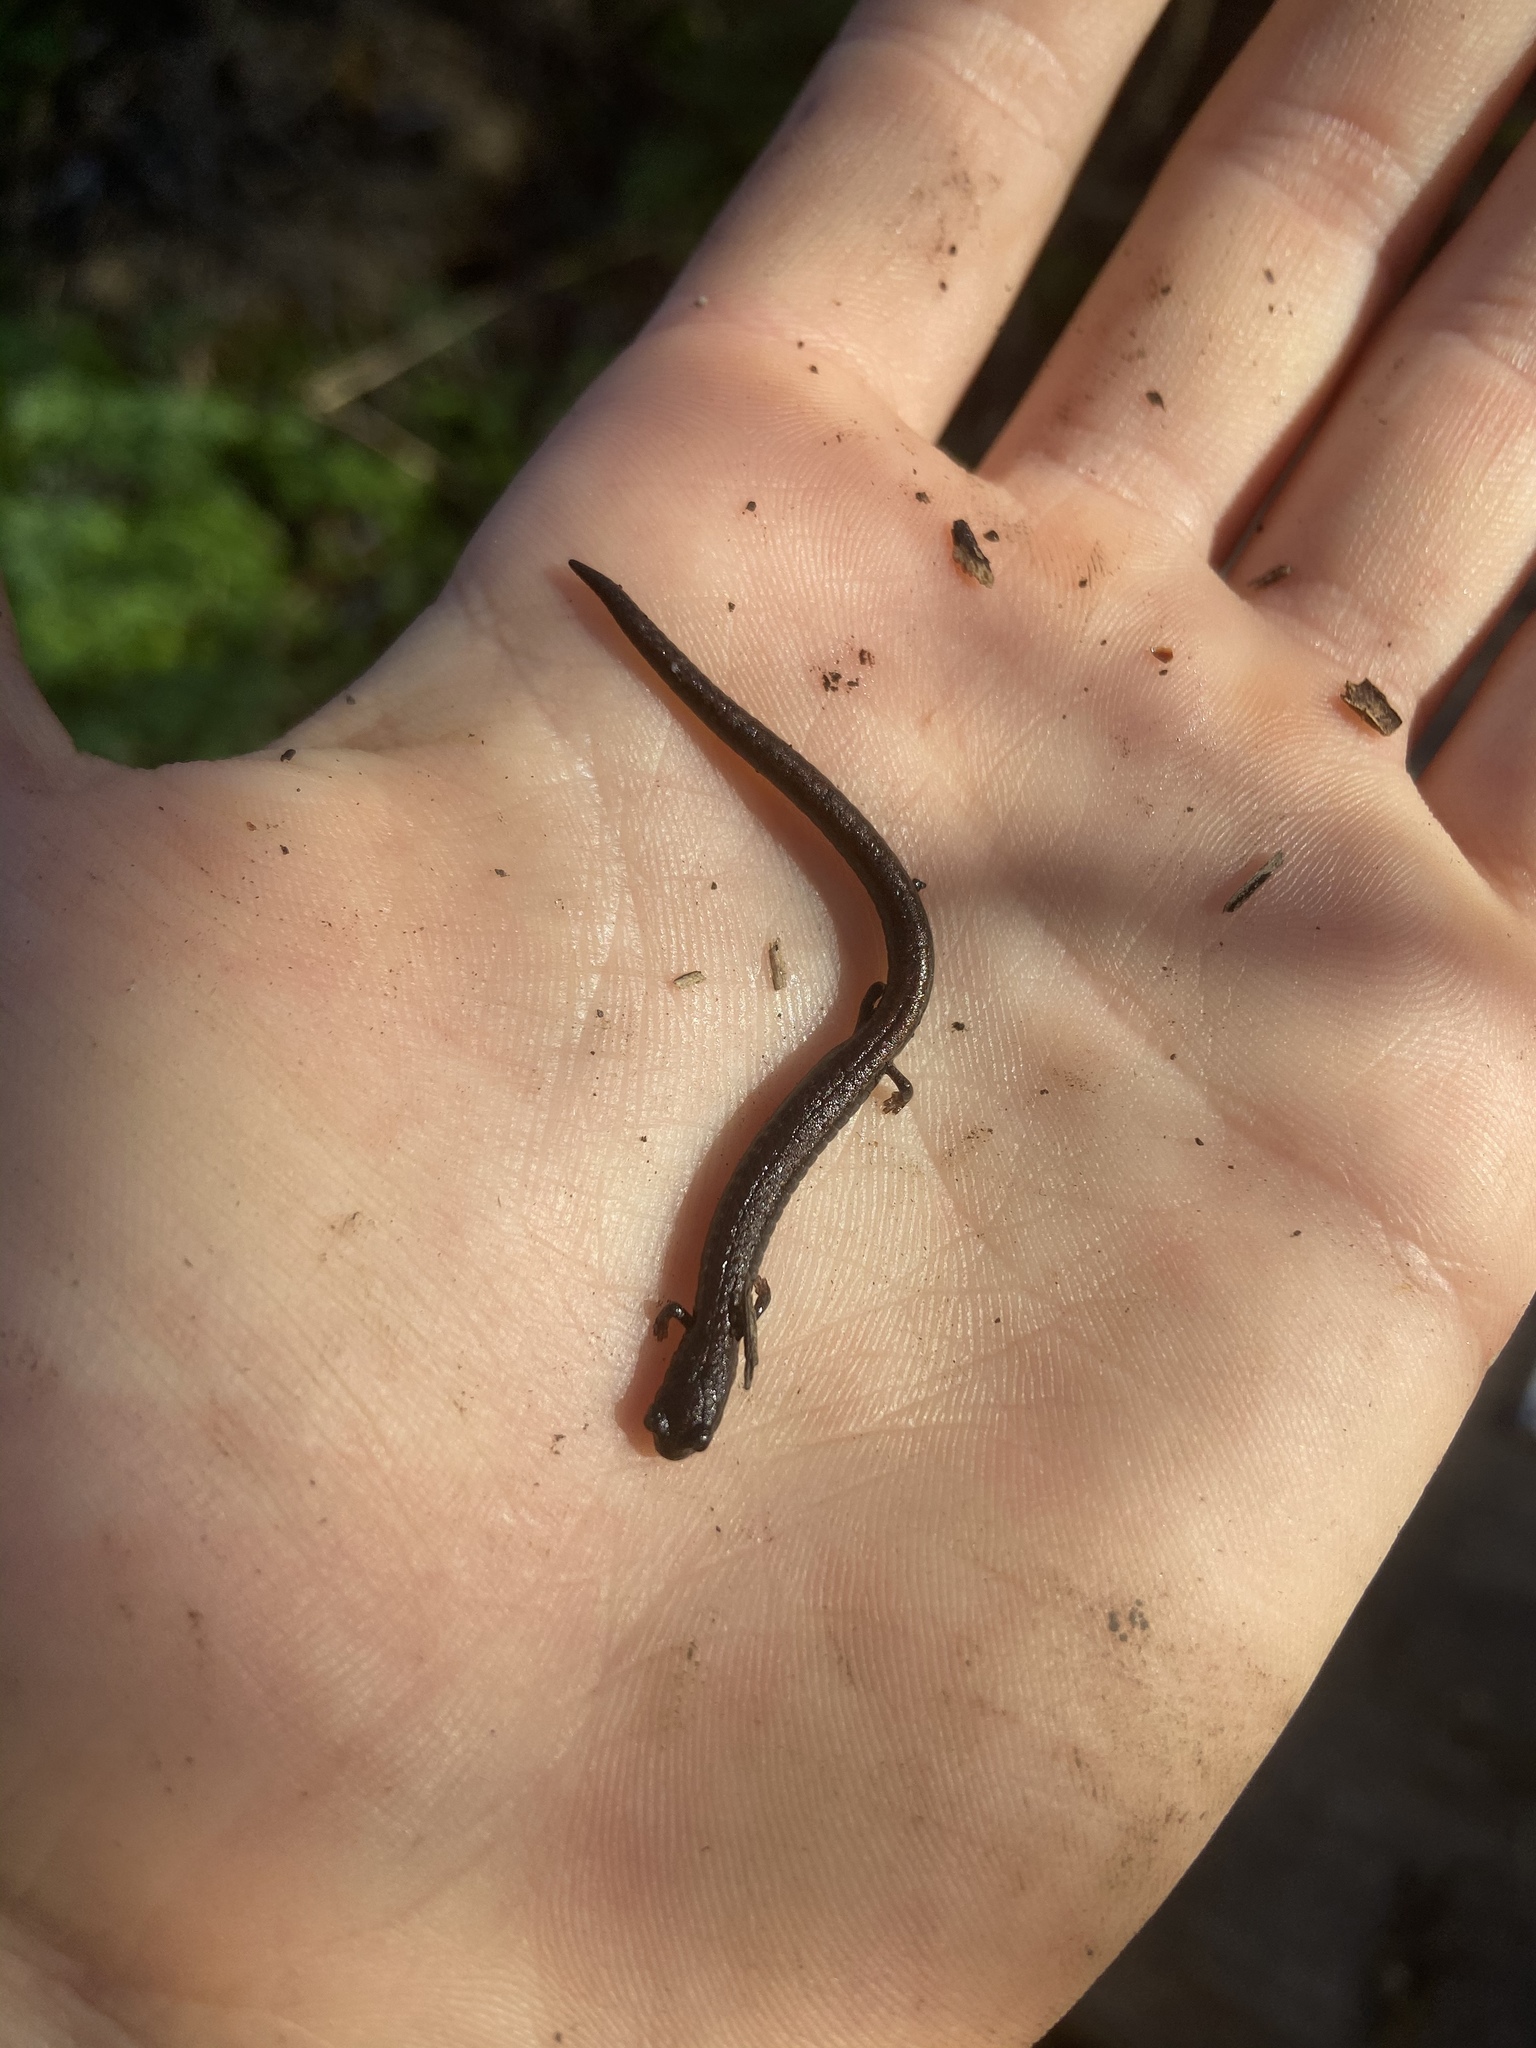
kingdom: Animalia
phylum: Chordata
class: Amphibia
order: Caudata
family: Plethodontidae
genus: Batrachoseps
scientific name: Batrachoseps attenuatus
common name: California slender salamander
